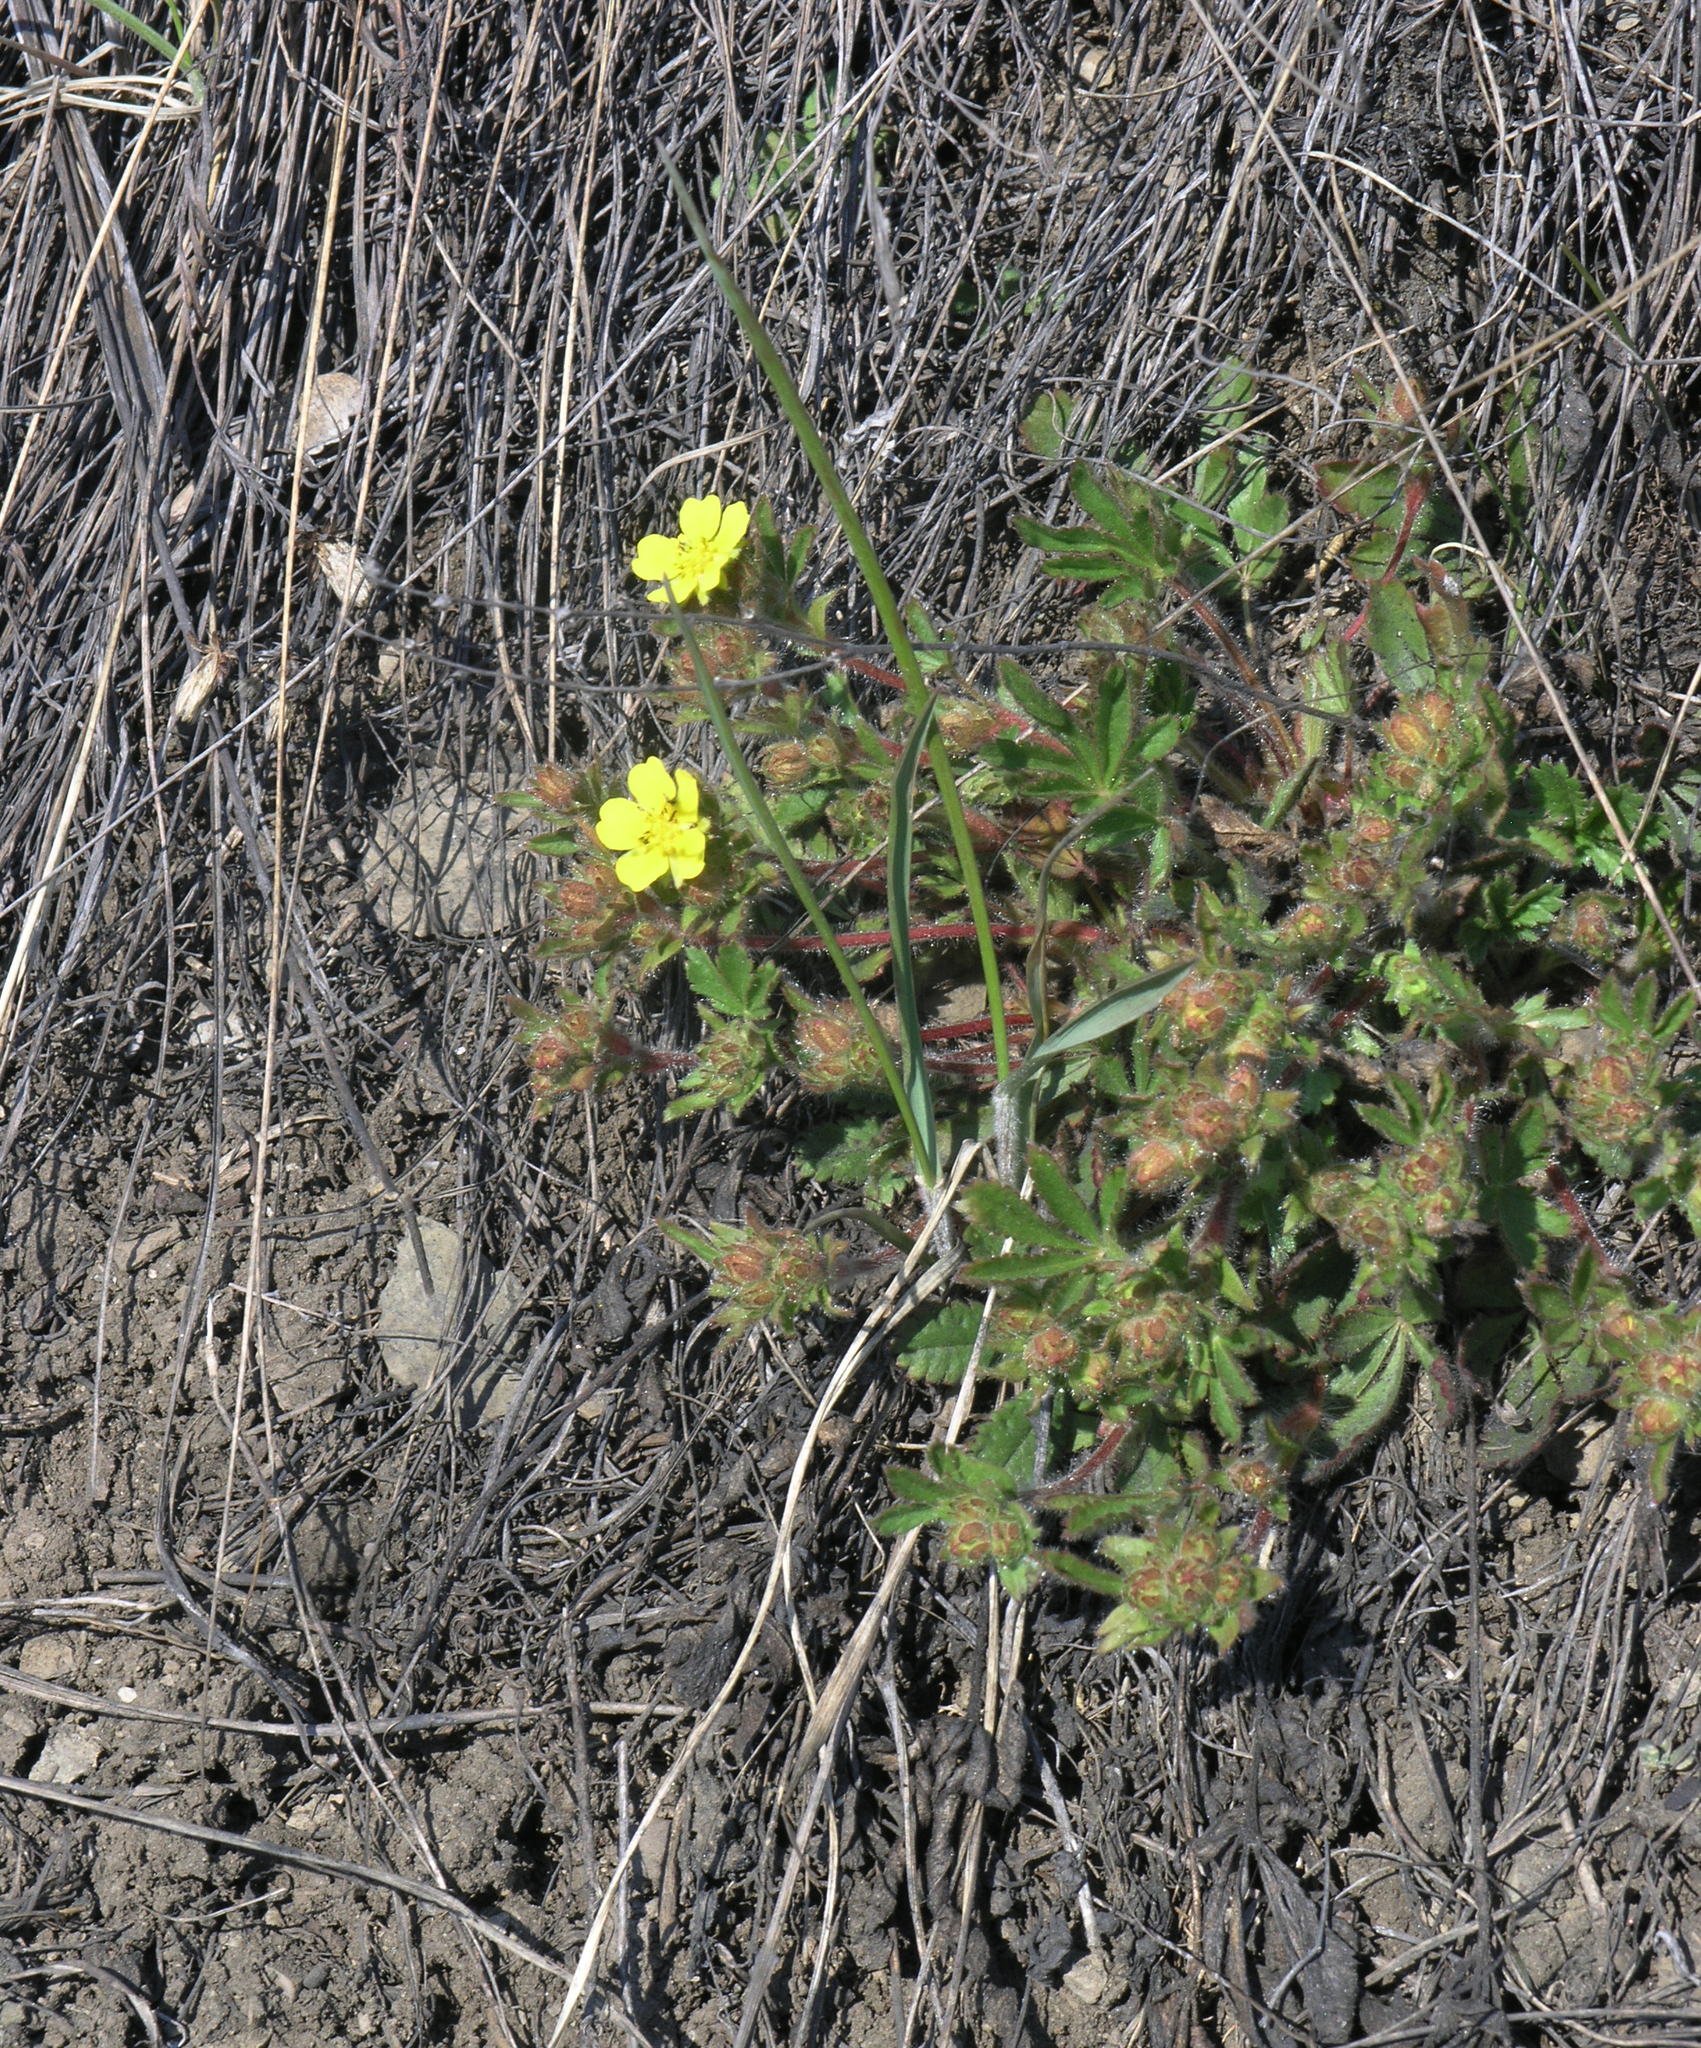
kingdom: Plantae
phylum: Tracheophyta
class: Magnoliopsida
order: Rosales
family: Rosaceae
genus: Potentilla
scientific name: Potentilla humifusa
